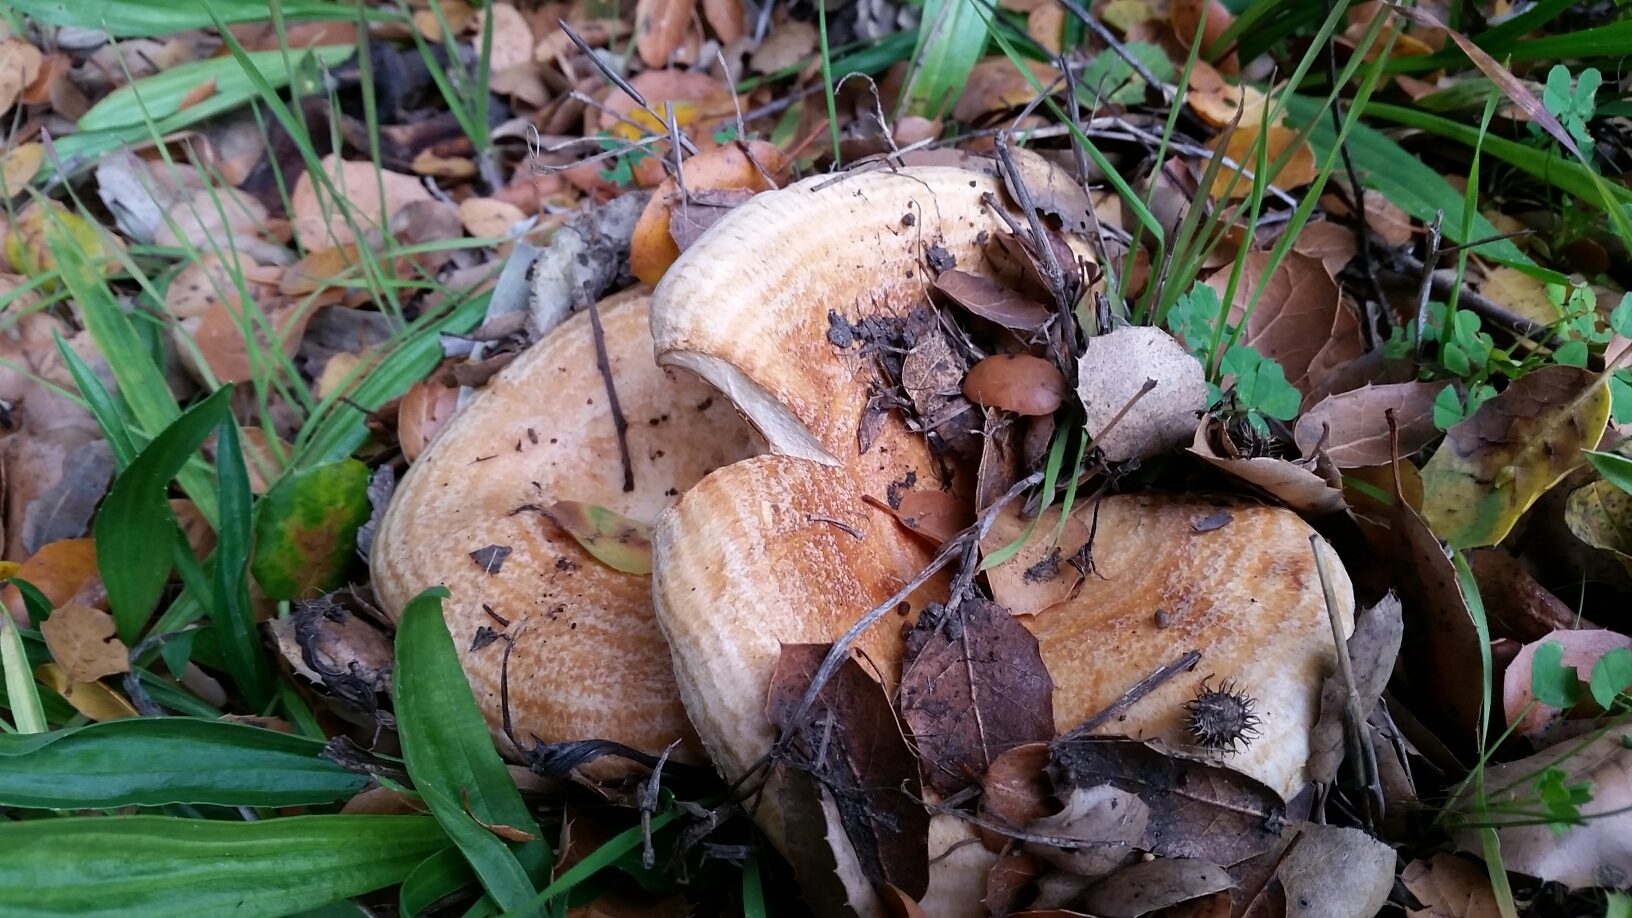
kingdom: Fungi
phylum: Basidiomycota
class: Agaricomycetes
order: Russulales
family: Russulaceae
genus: Lactarius
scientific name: Lactarius alnicola
